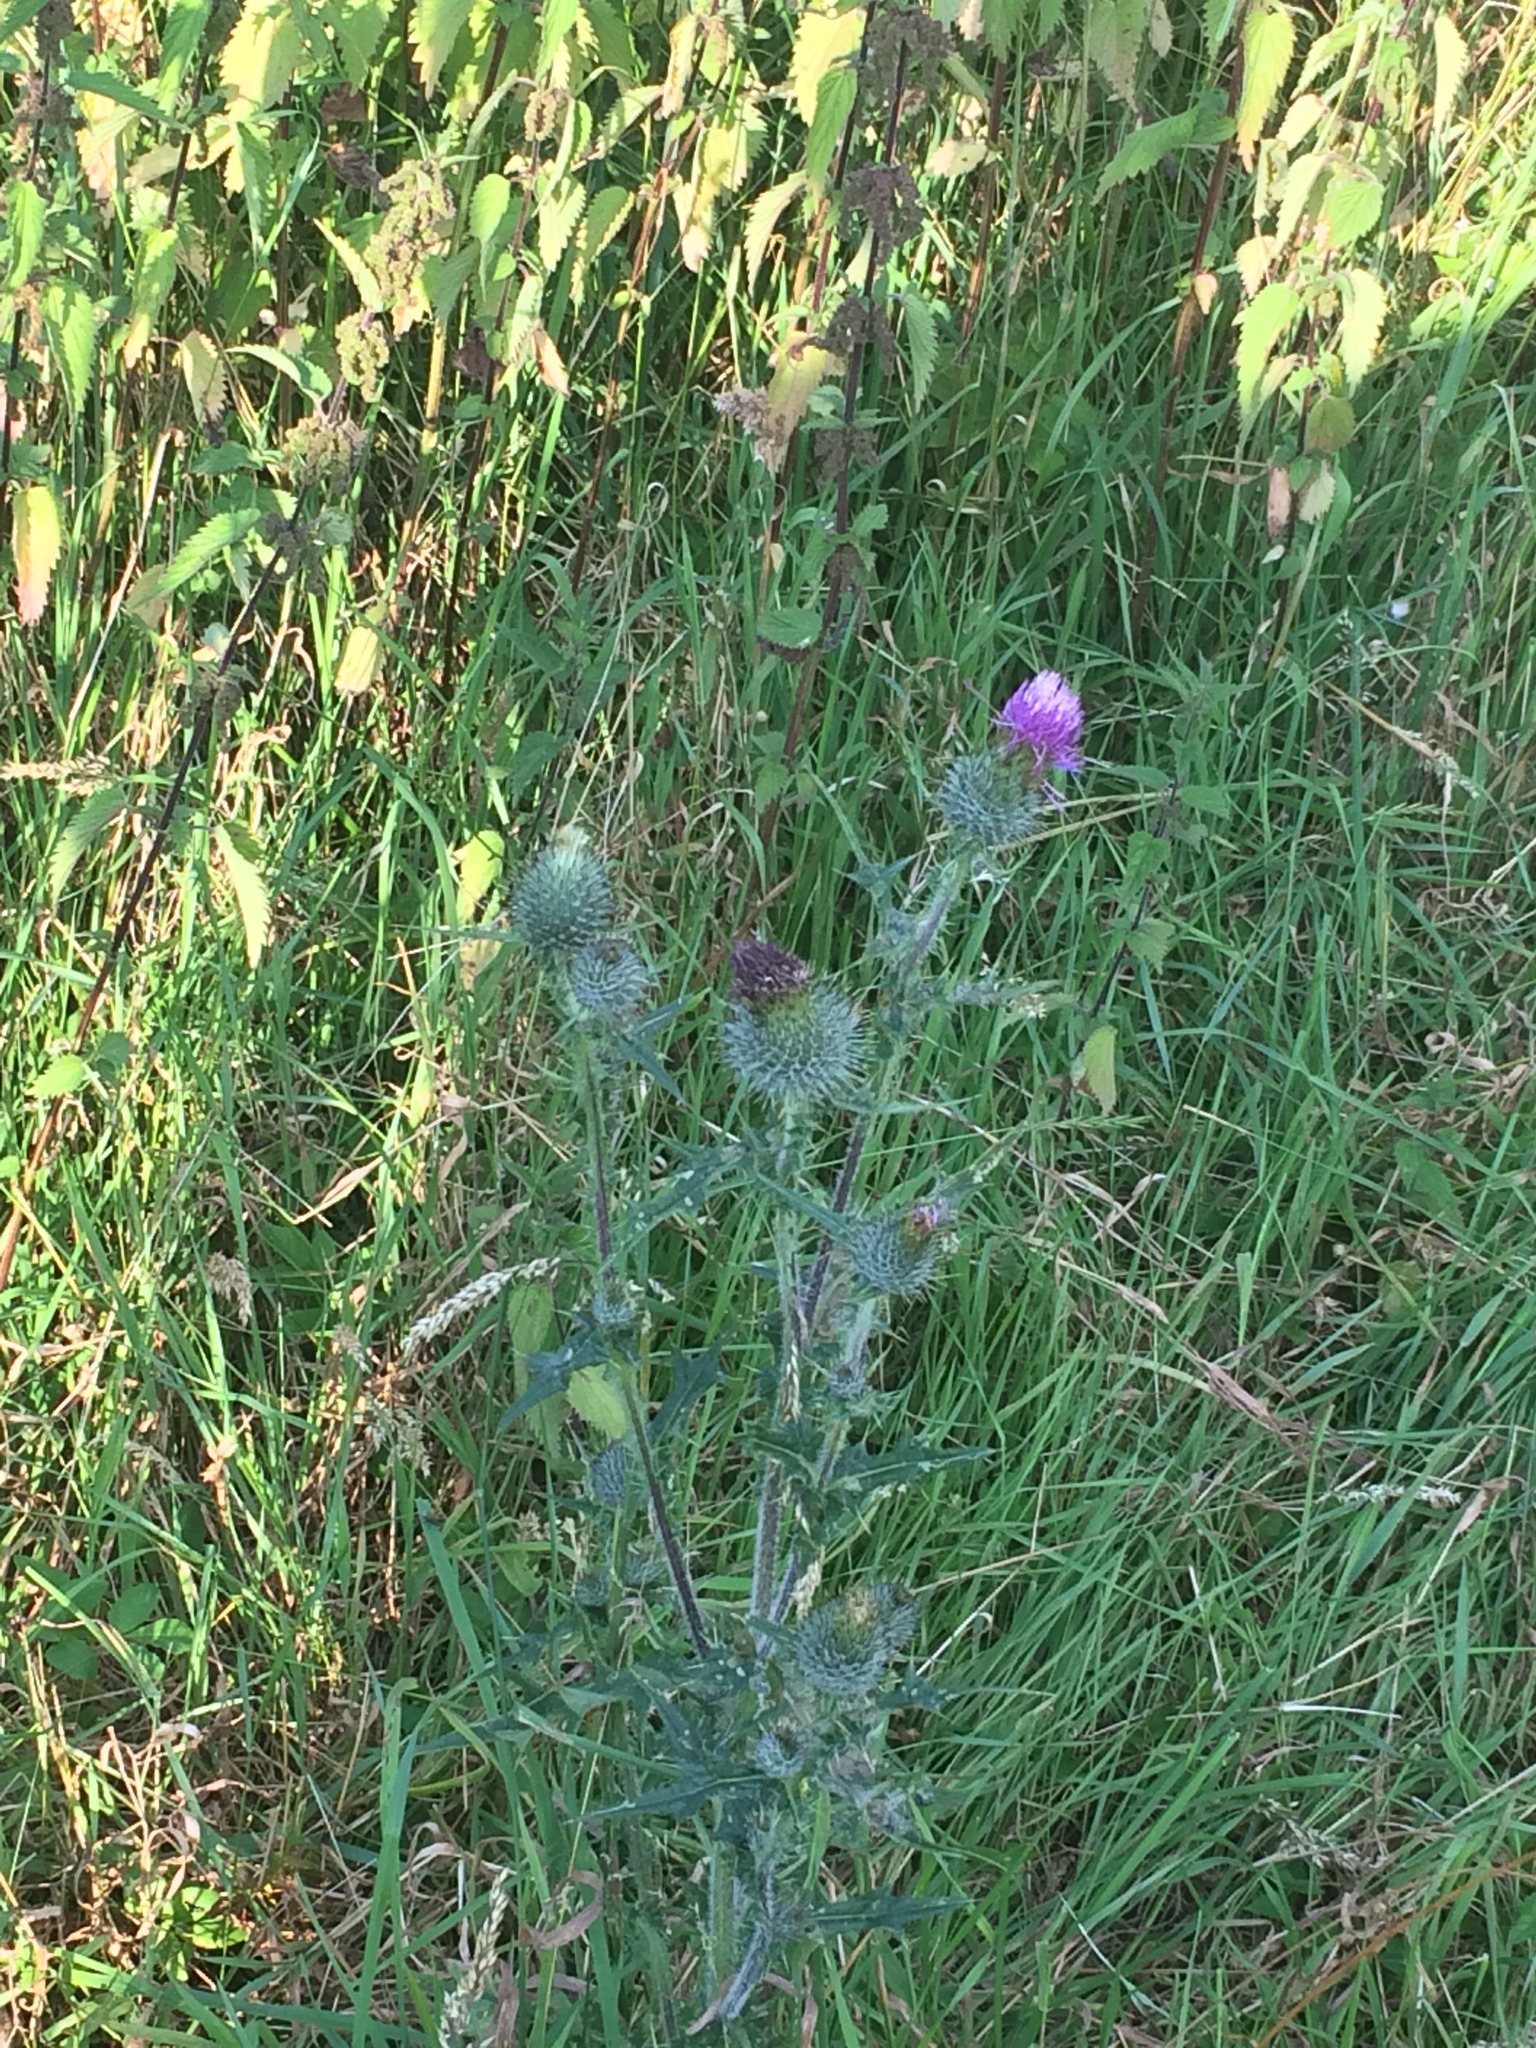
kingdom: Plantae
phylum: Tracheophyta
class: Magnoliopsida
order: Asterales
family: Asteraceae
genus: Cirsium
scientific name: Cirsium vulgare
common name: Bull thistle
